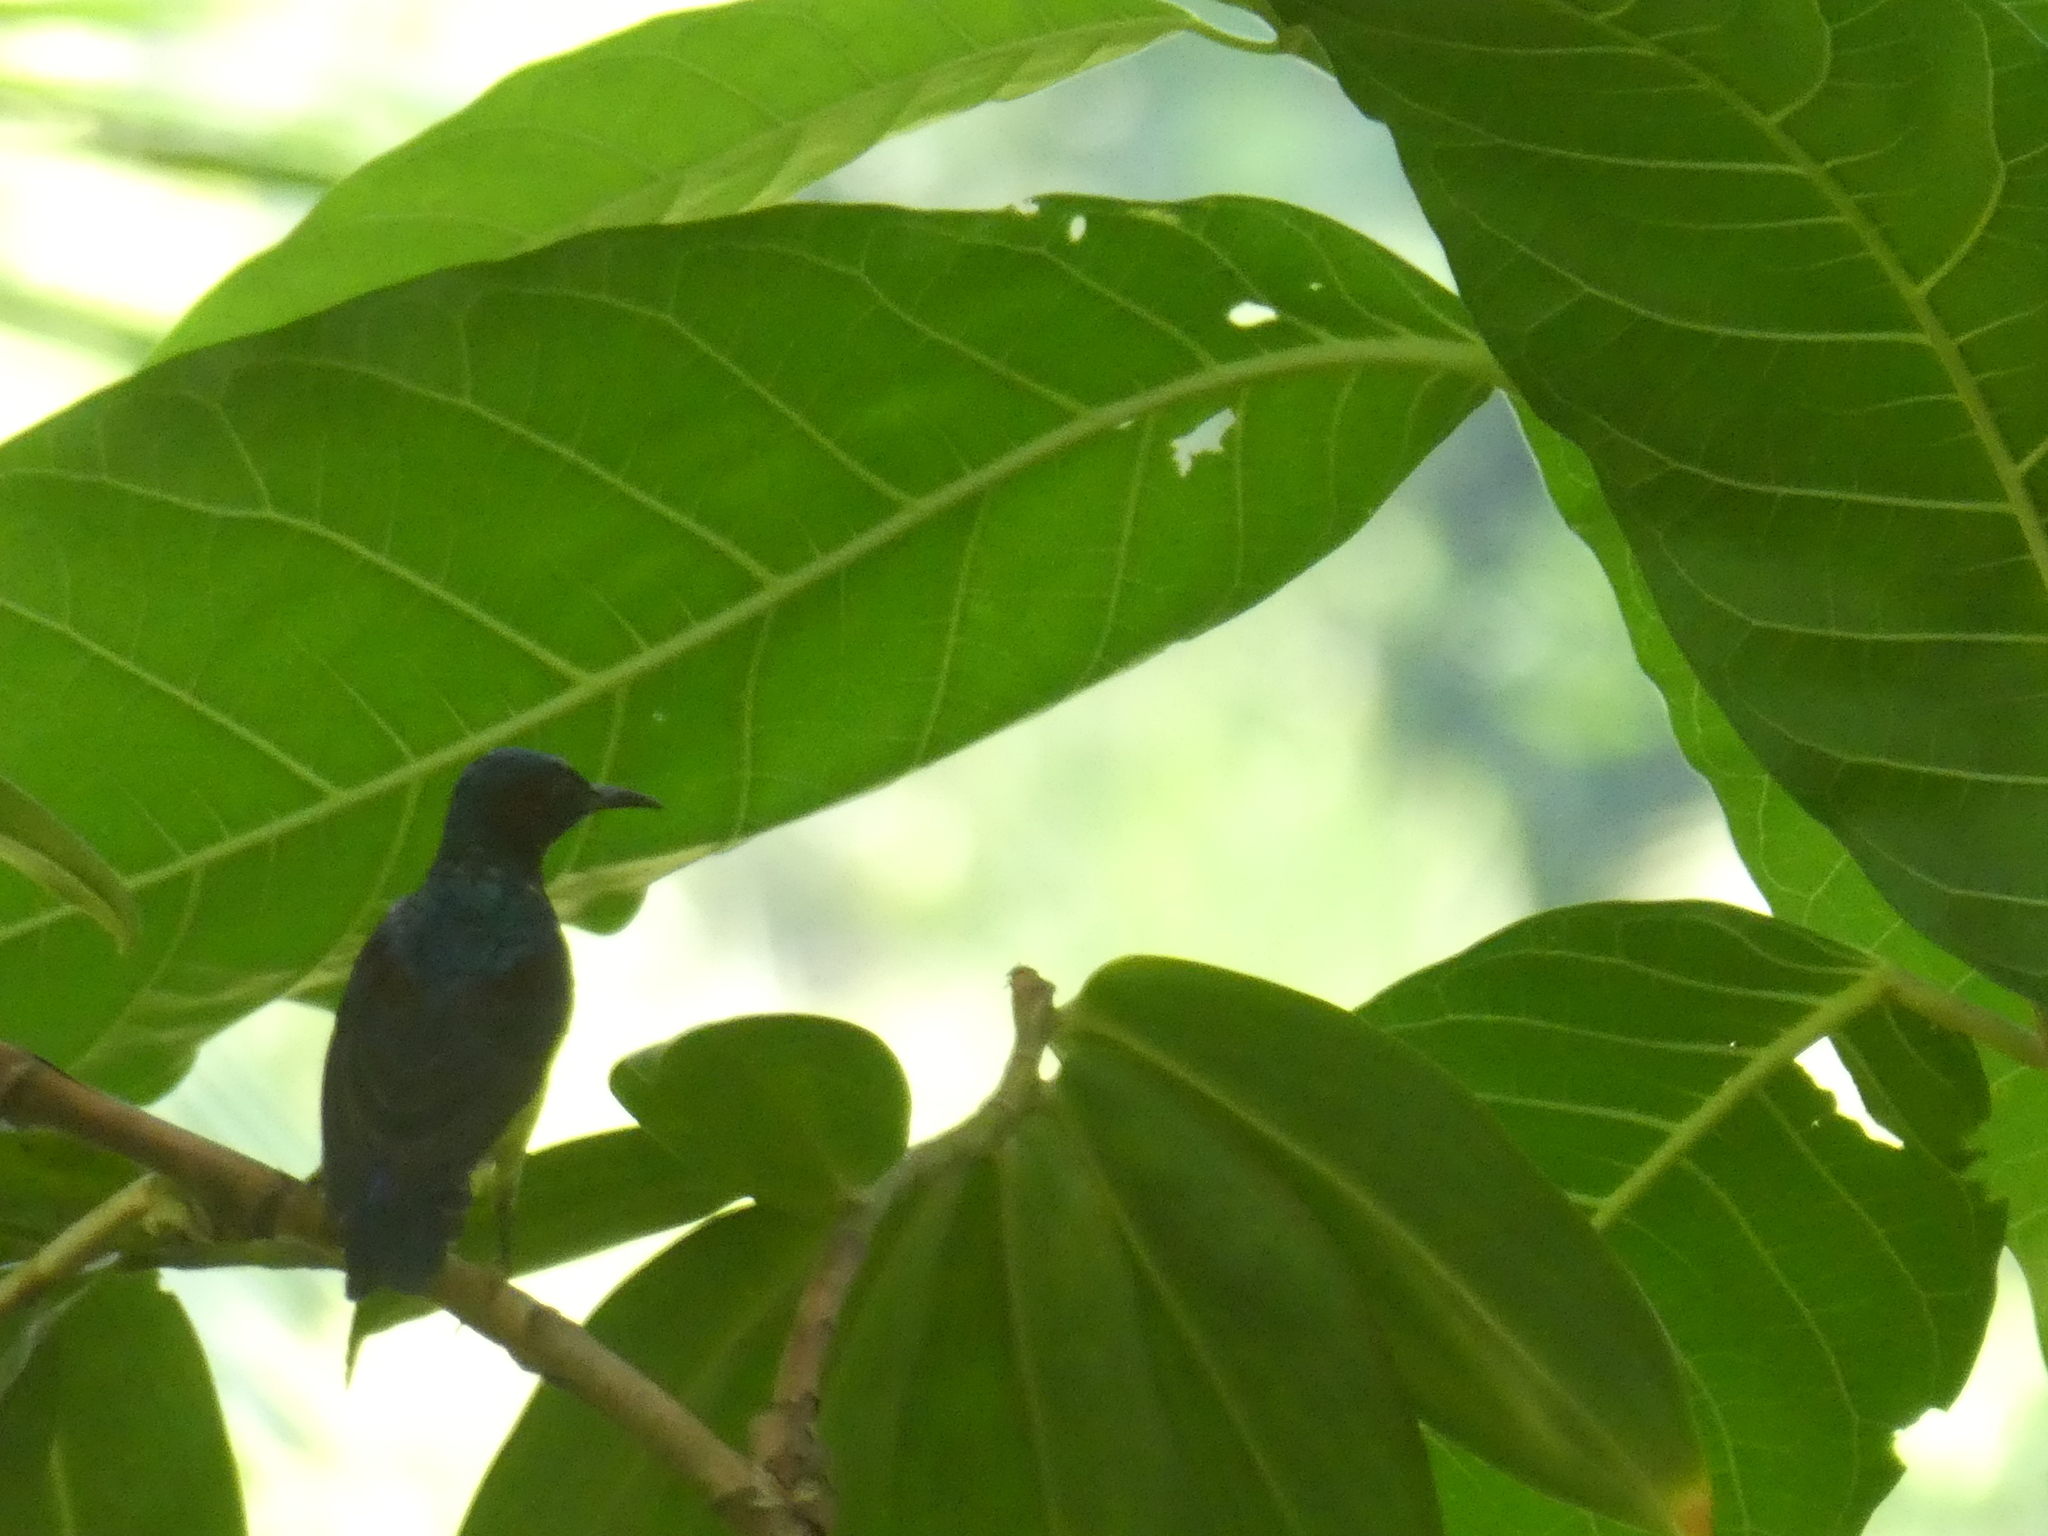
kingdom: Animalia
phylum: Chordata
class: Aves
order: Passeriformes
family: Nectariniidae
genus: Anthreptes
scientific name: Anthreptes malacensis
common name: Brown-throated sunbird
